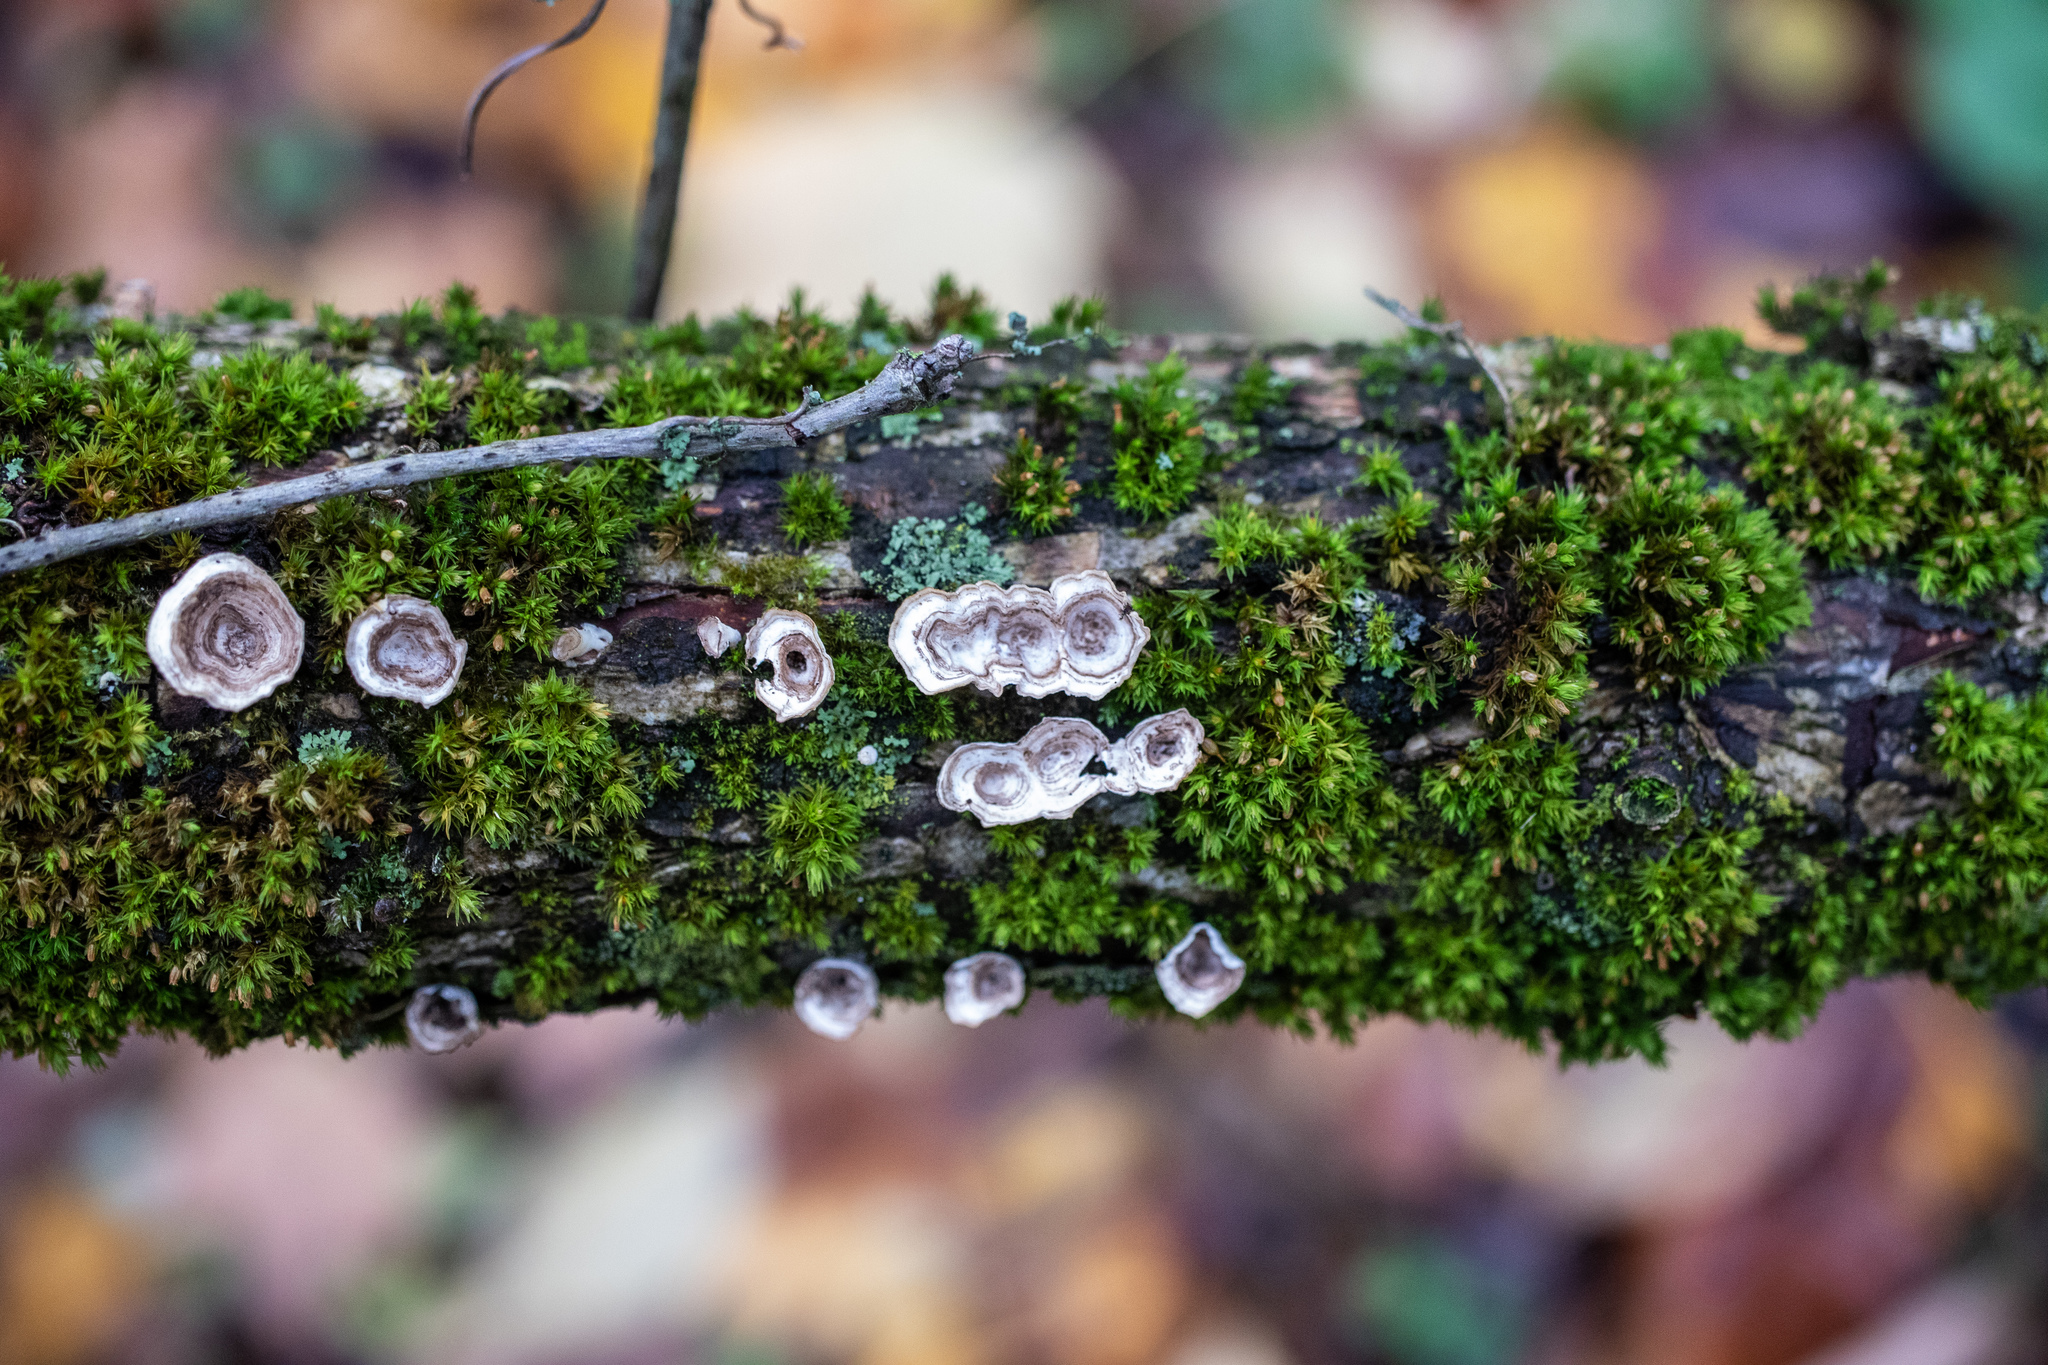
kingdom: Fungi
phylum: Basidiomycota
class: Agaricomycetes
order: Polyporales
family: Polyporaceae
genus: Poronidulus
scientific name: Poronidulus conchifer
